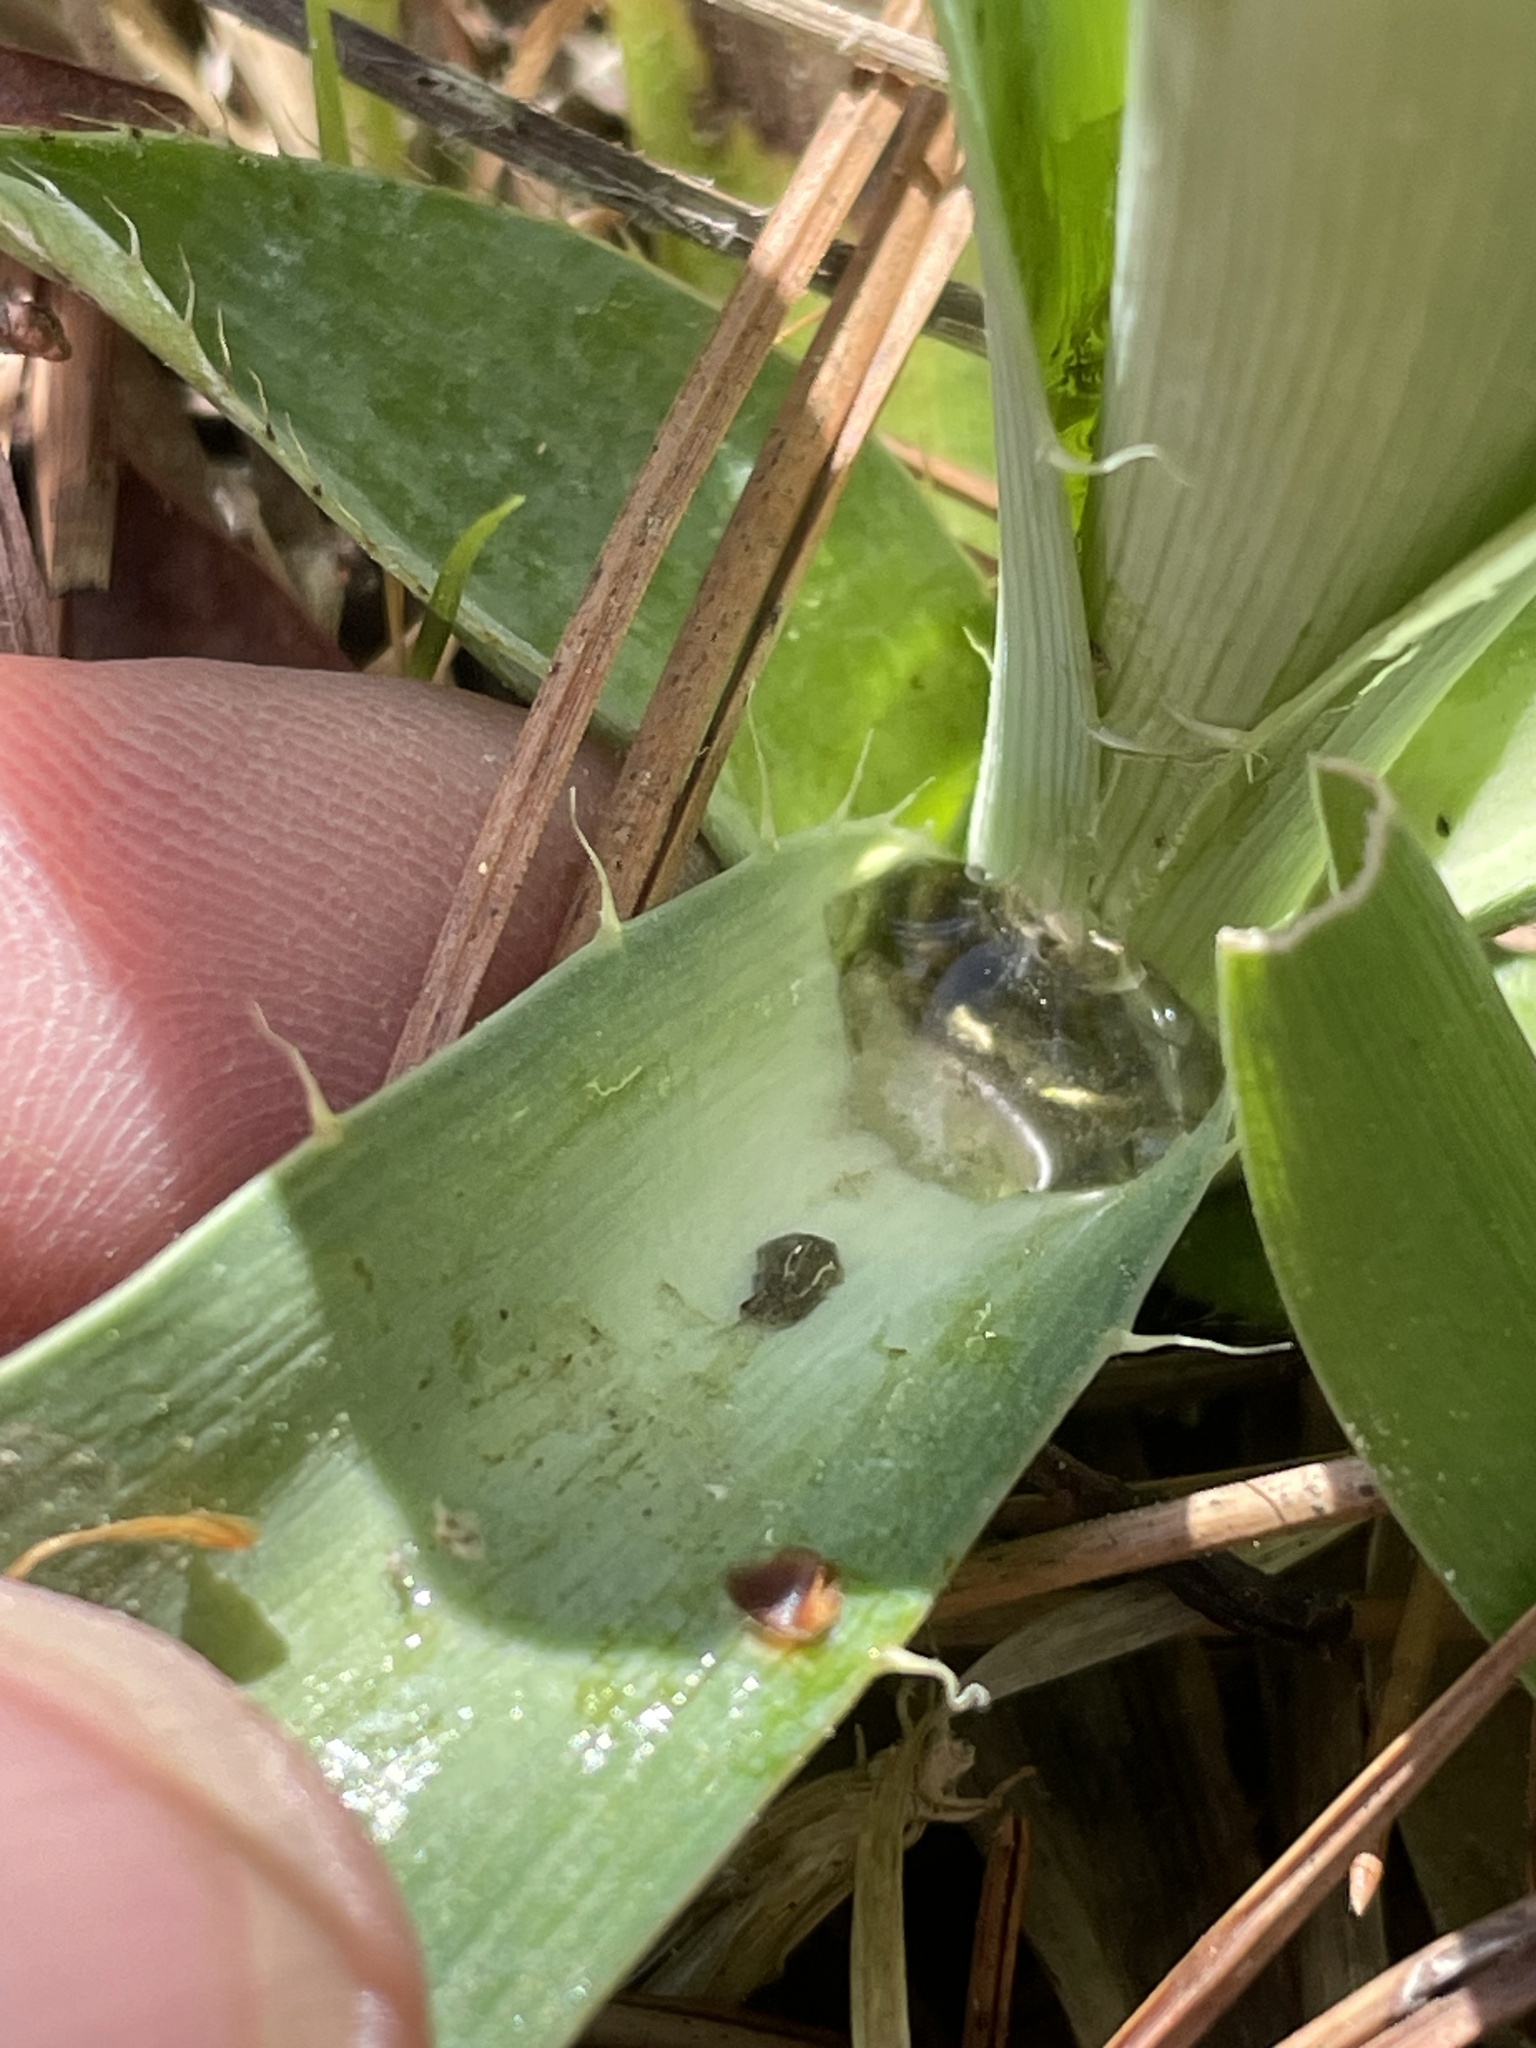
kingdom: Plantae
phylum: Tracheophyta
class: Magnoliopsida
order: Apiales
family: Apiaceae
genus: Eryngium
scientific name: Eryngium yuccifolium
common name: Button eryngo
